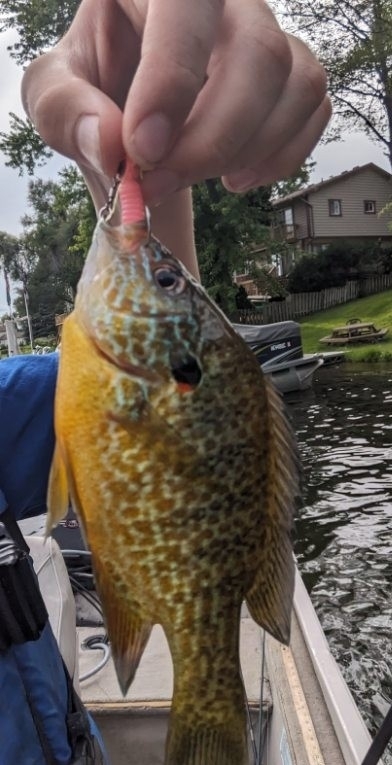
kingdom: Animalia
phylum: Chordata
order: Perciformes
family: Centrarchidae
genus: Lepomis
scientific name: Lepomis gibbosus
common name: Pumpkinseed
